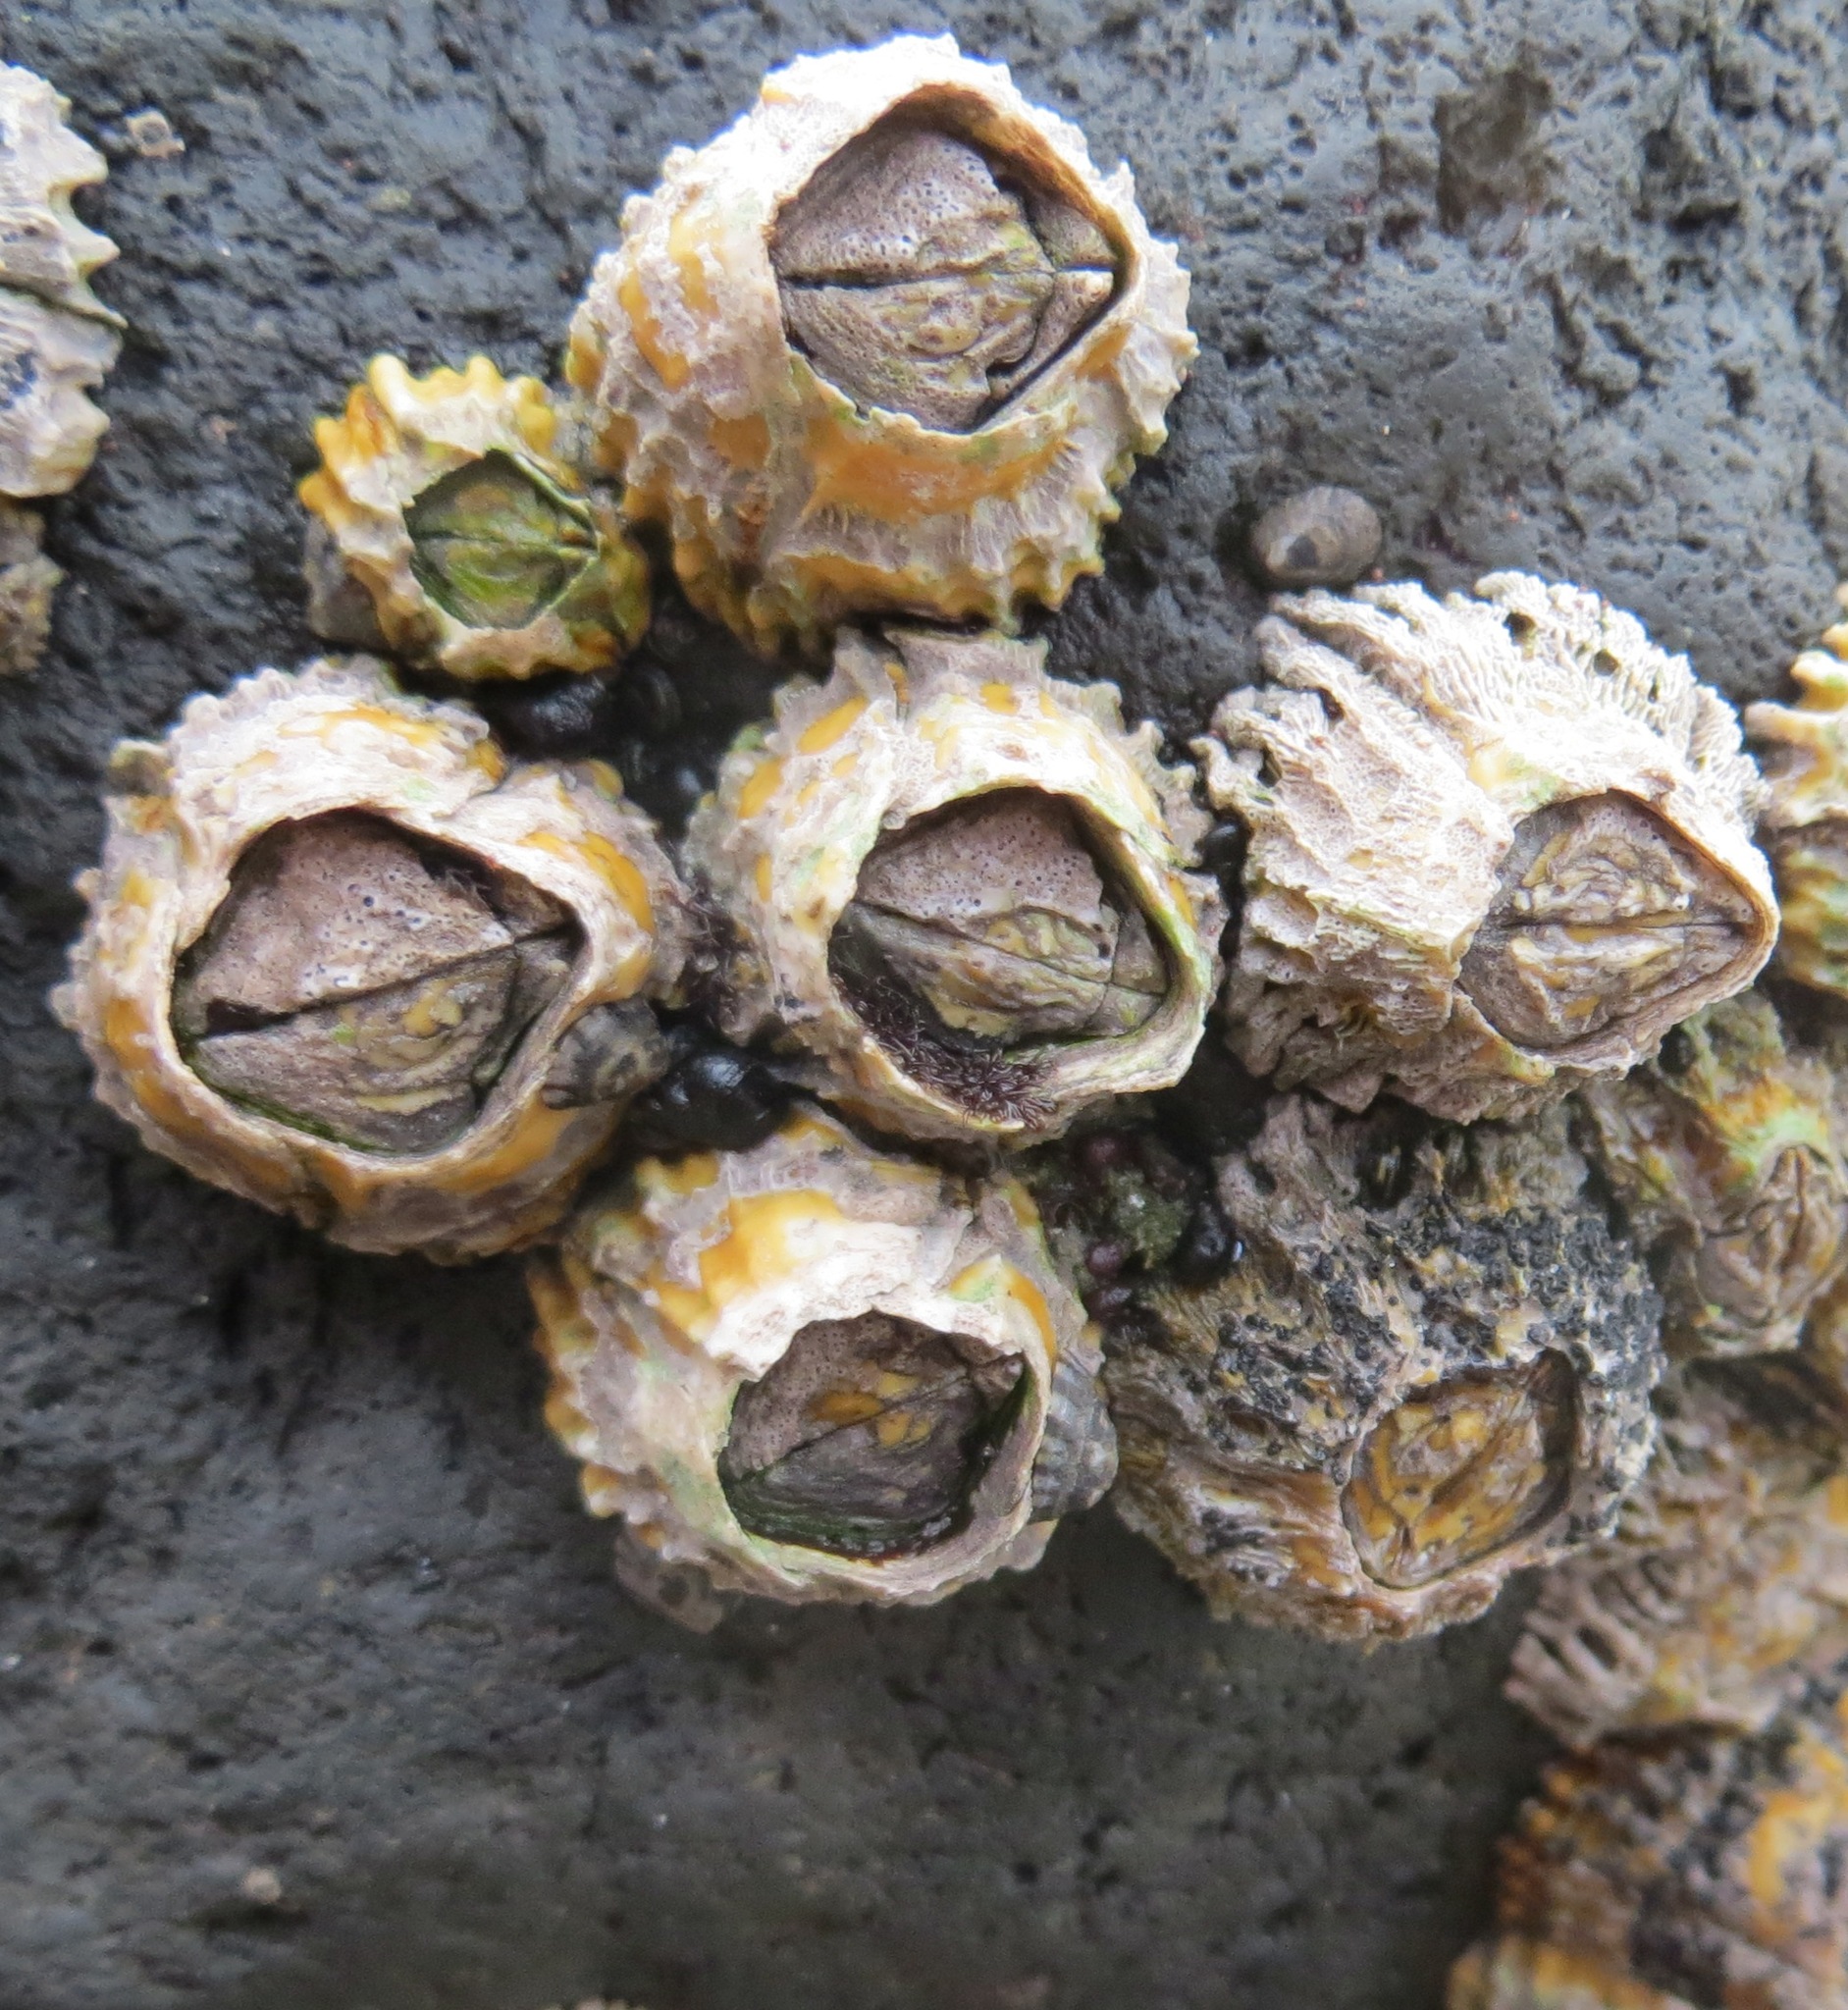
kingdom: Animalia
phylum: Arthropoda
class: Maxillopoda
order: Sessilia
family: Tetraclitidae
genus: Epopella
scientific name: Epopella plicata
